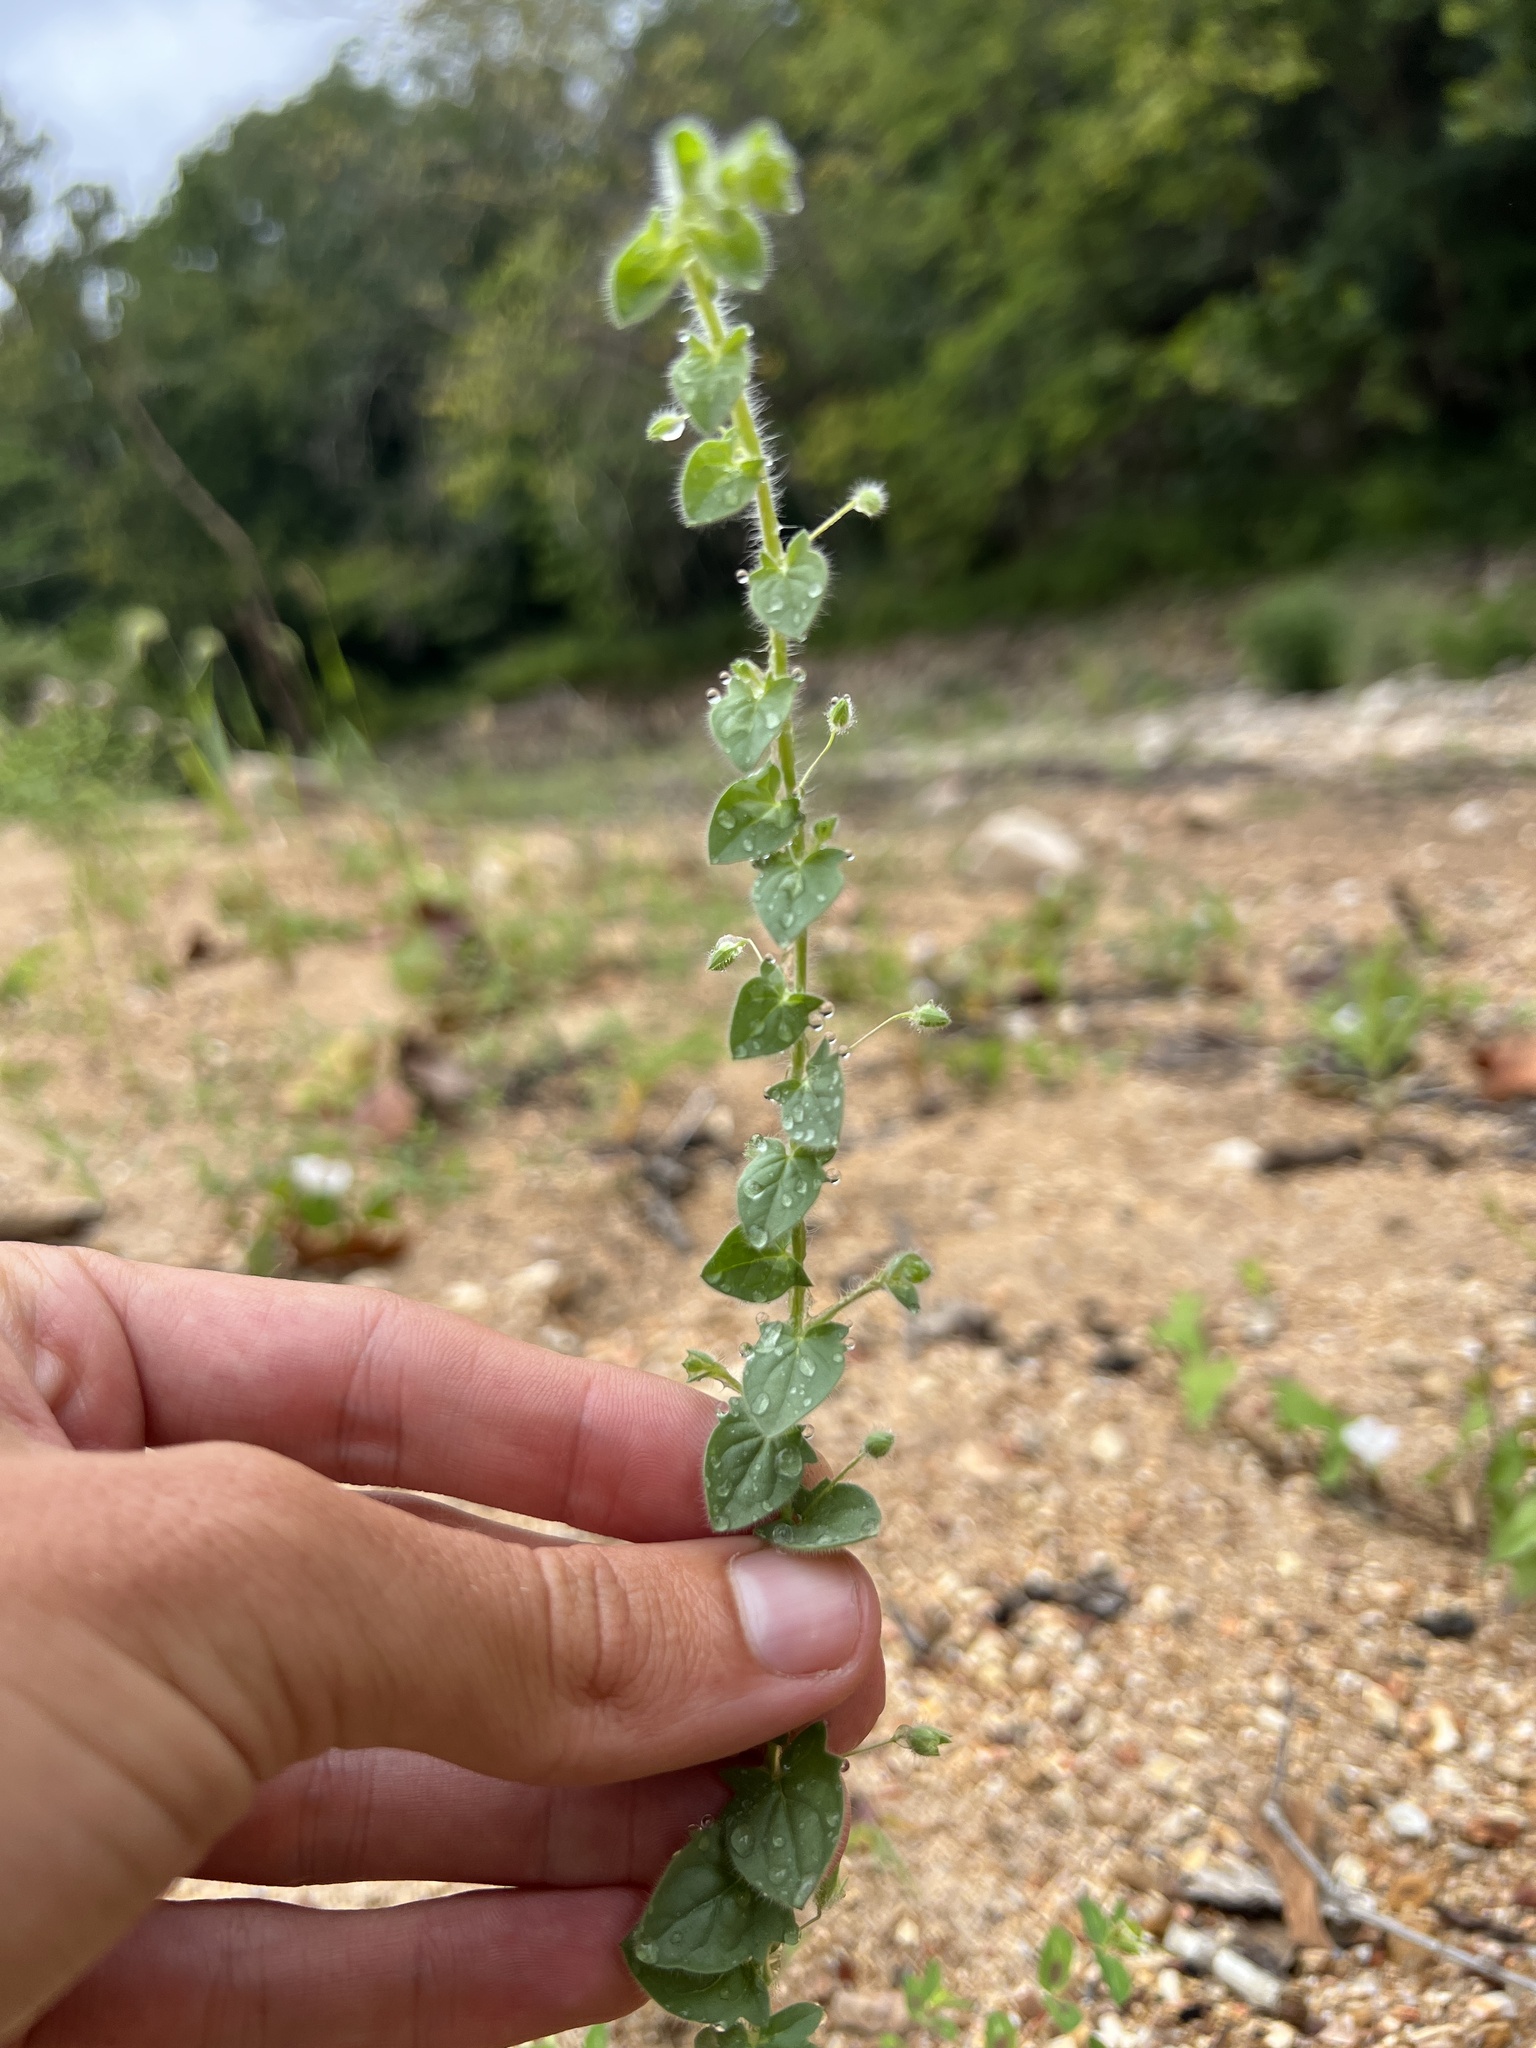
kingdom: Plantae
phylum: Tracheophyta
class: Magnoliopsida
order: Lamiales
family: Plantaginaceae
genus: Kickxia
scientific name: Kickxia elatine
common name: Sharp-leaved fluellen
